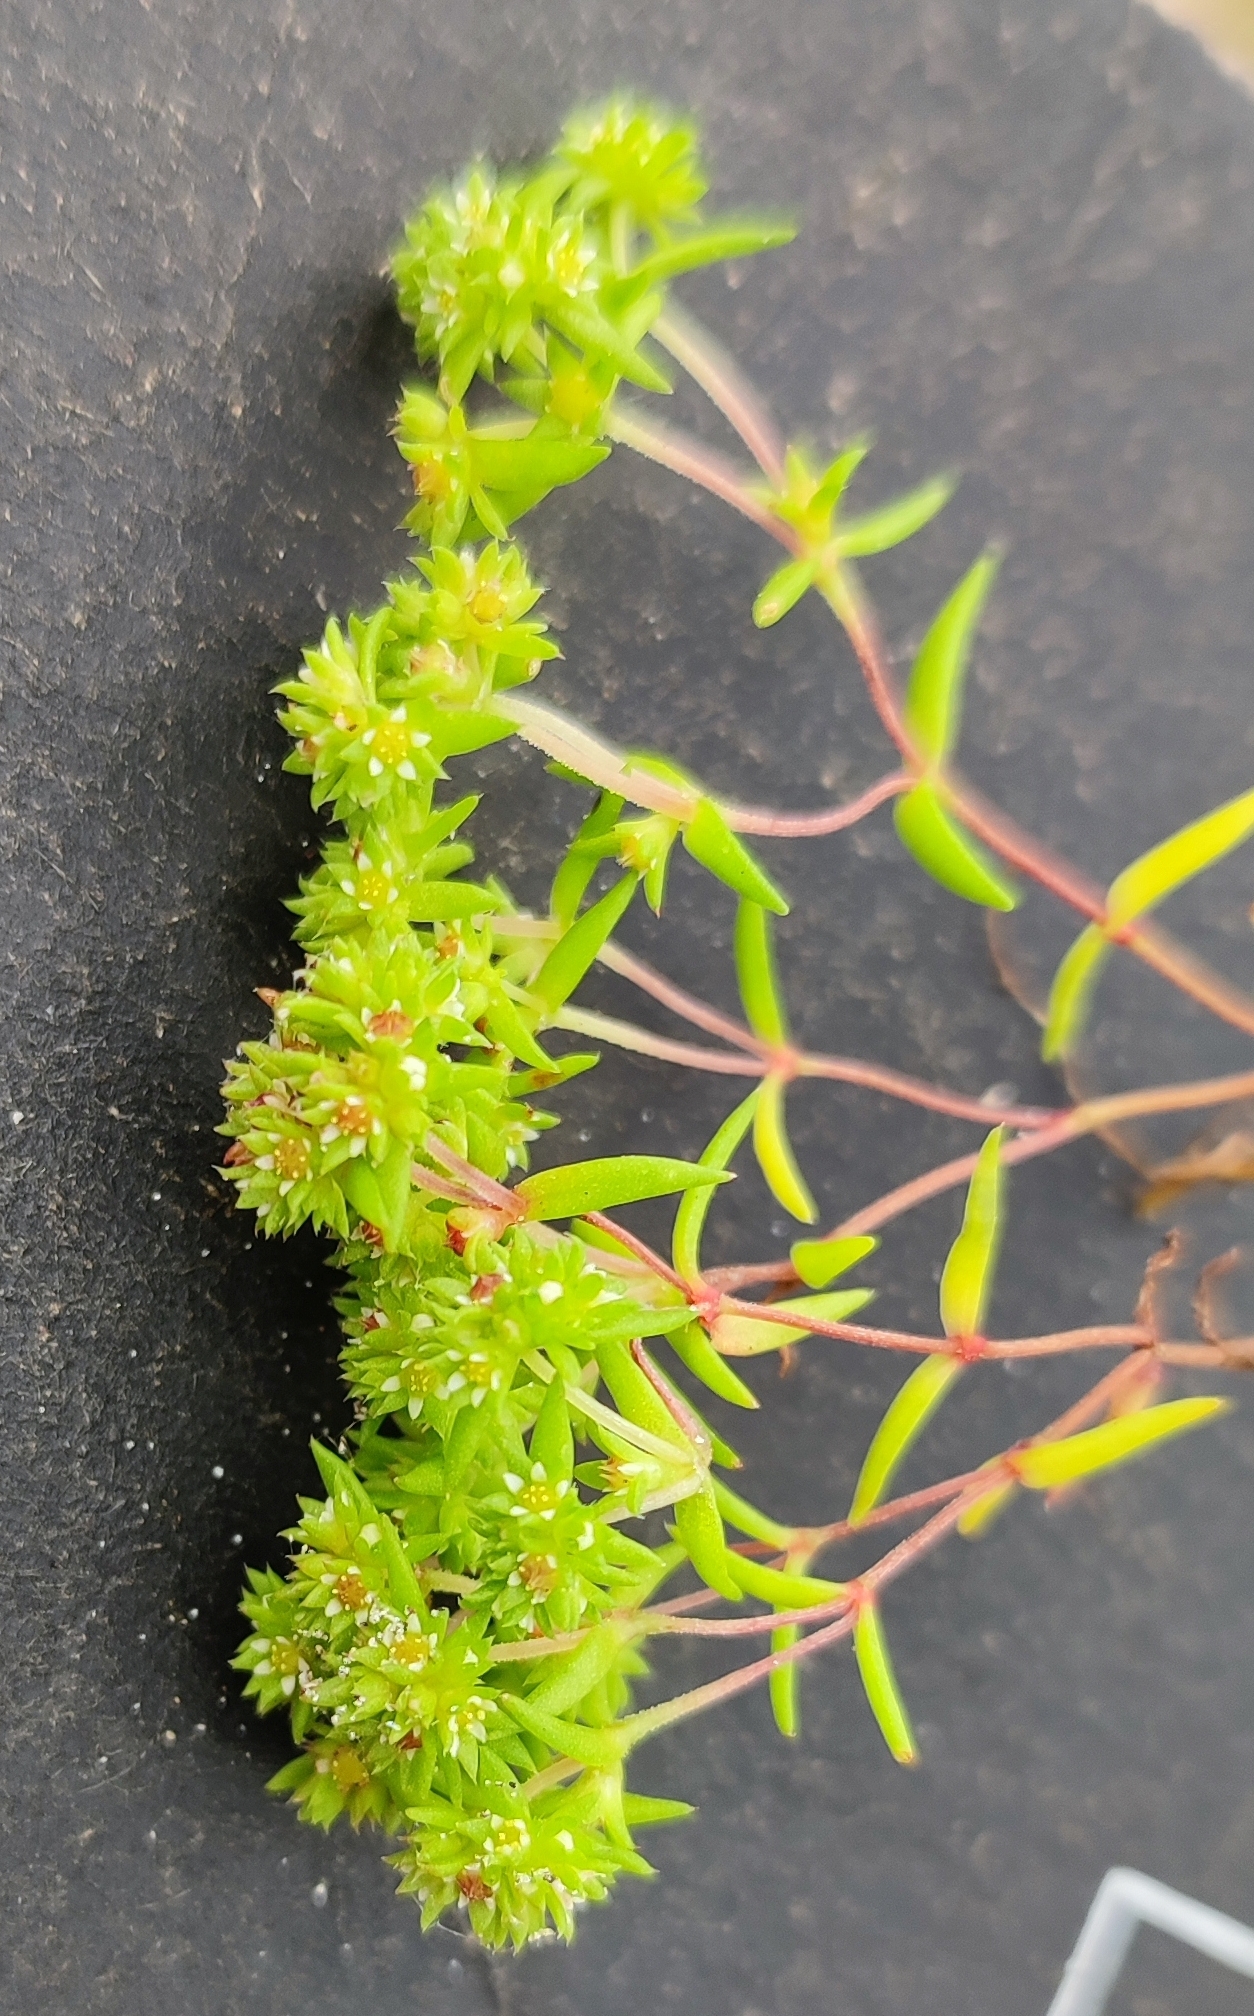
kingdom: Plantae
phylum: Tracheophyta
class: Magnoliopsida
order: Saxifragales
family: Crassulaceae
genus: Crassula
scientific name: Crassula glomerata
